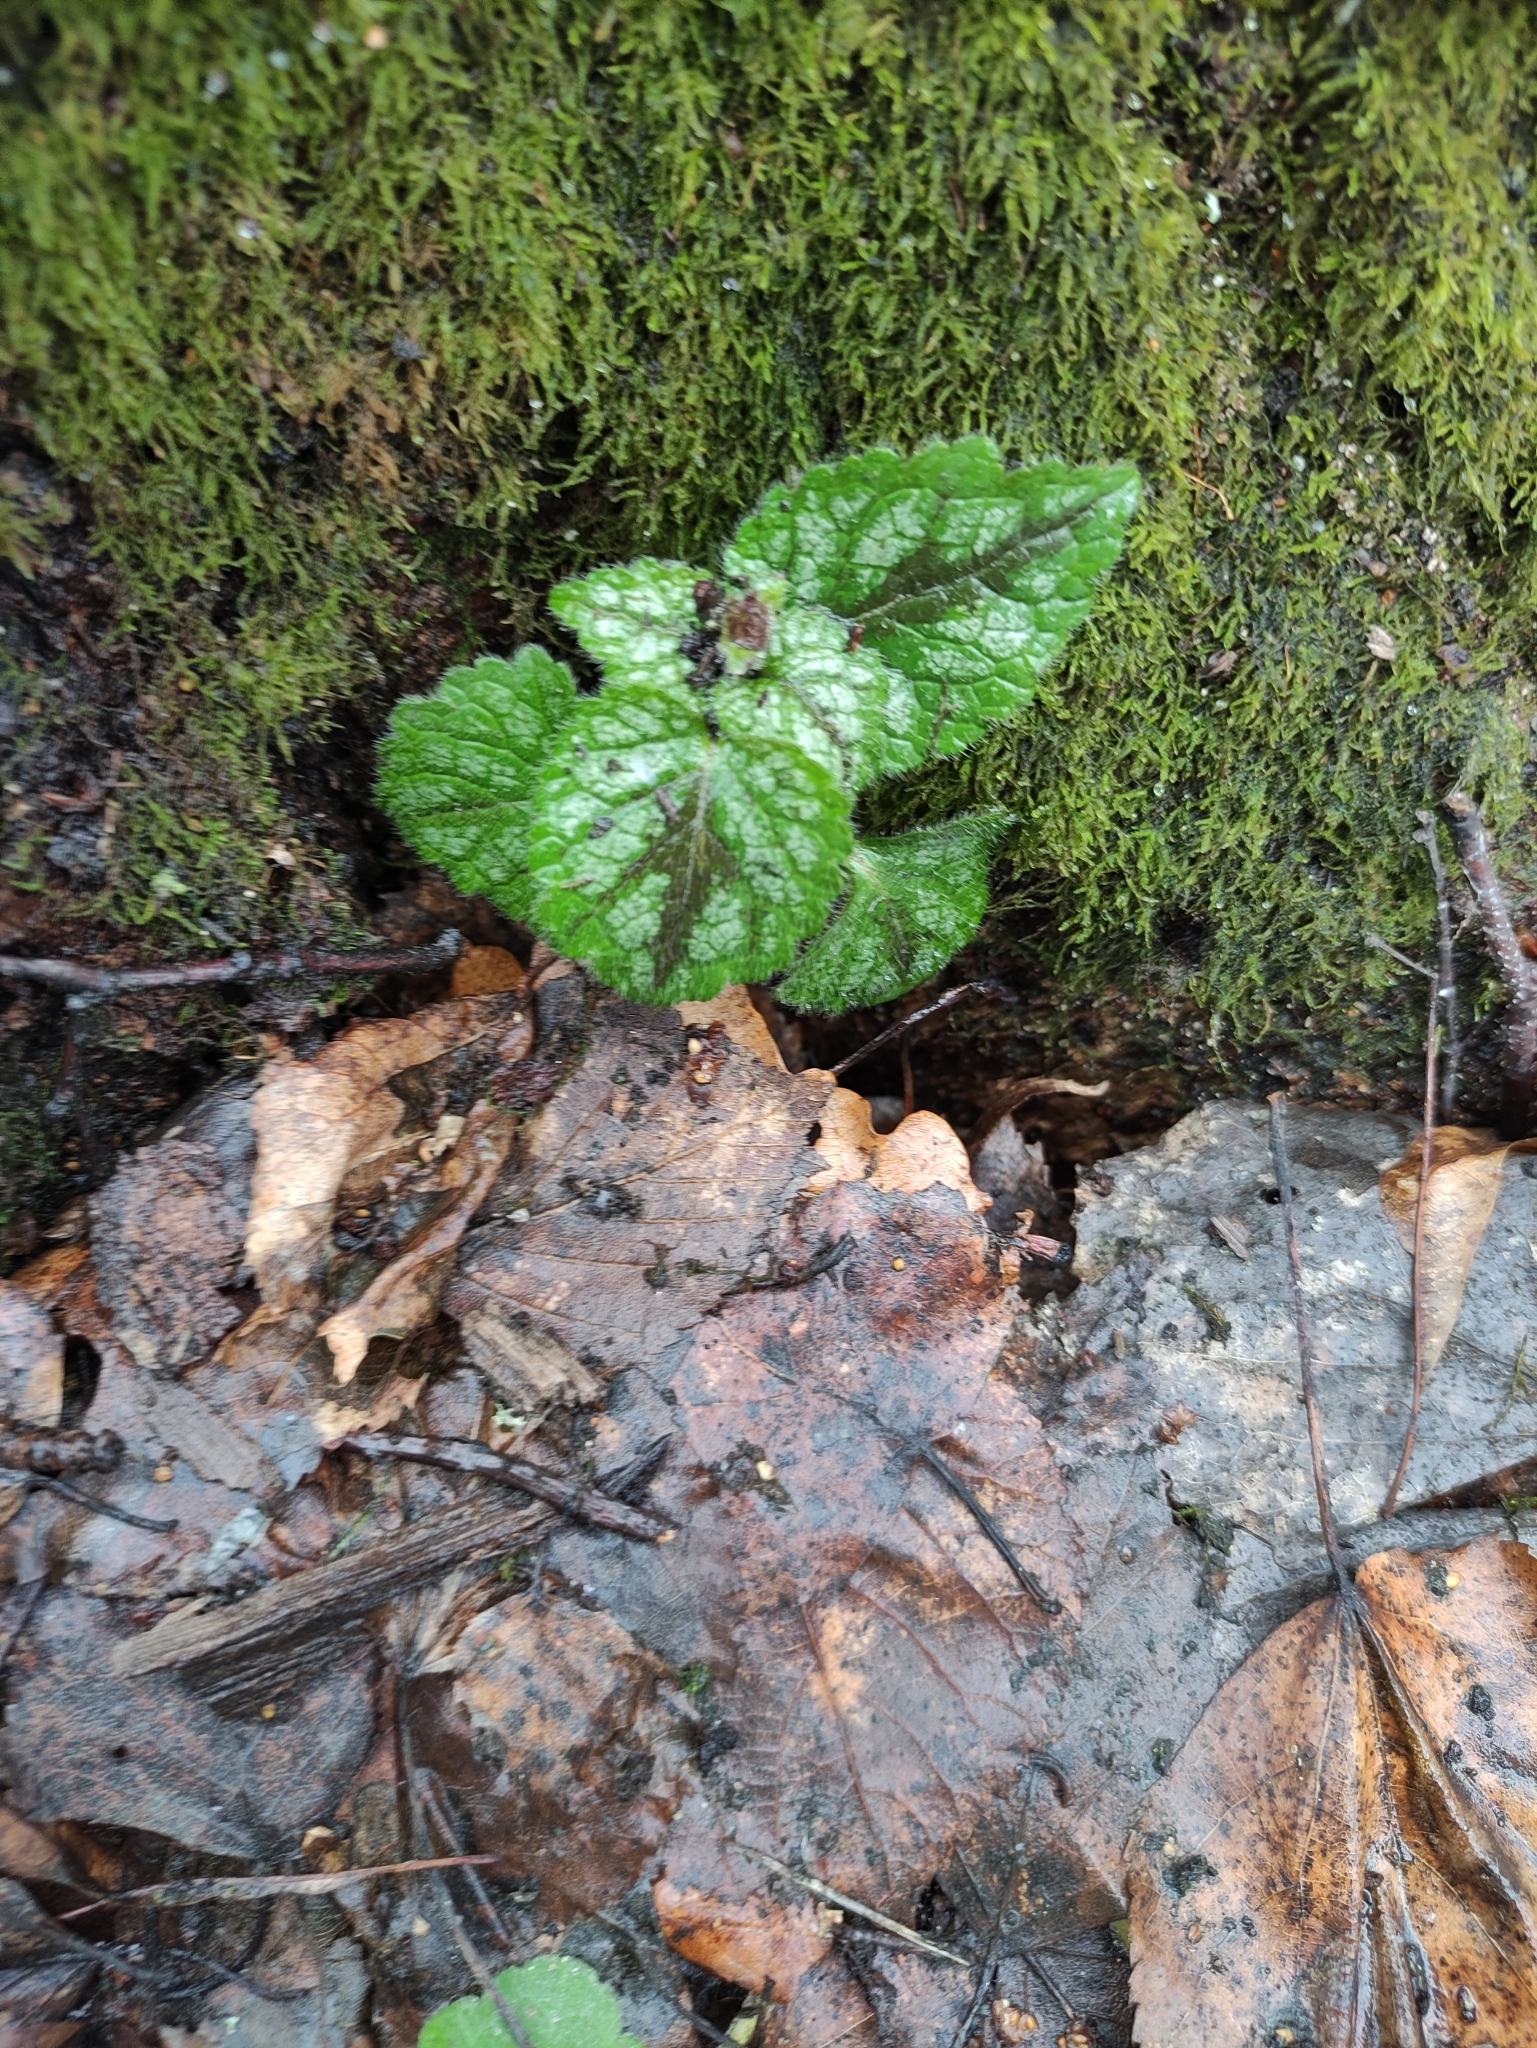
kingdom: Plantae
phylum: Tracheophyta
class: Magnoliopsida
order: Lamiales
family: Lamiaceae
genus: Lamium
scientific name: Lamium galeobdolon
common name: Yellow archangel
